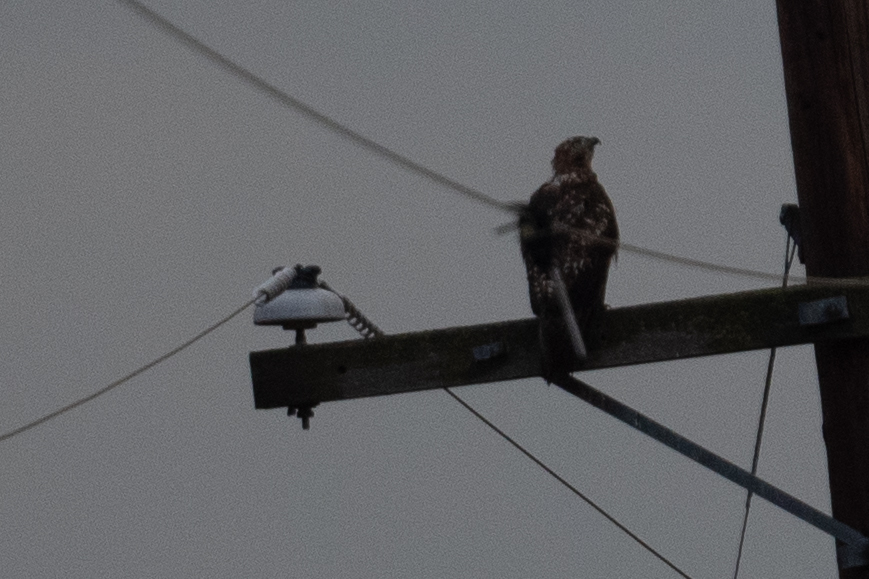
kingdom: Animalia
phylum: Chordata
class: Aves
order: Accipitriformes
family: Accipitridae
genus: Buteo
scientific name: Buteo jamaicensis
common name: Red-tailed hawk
